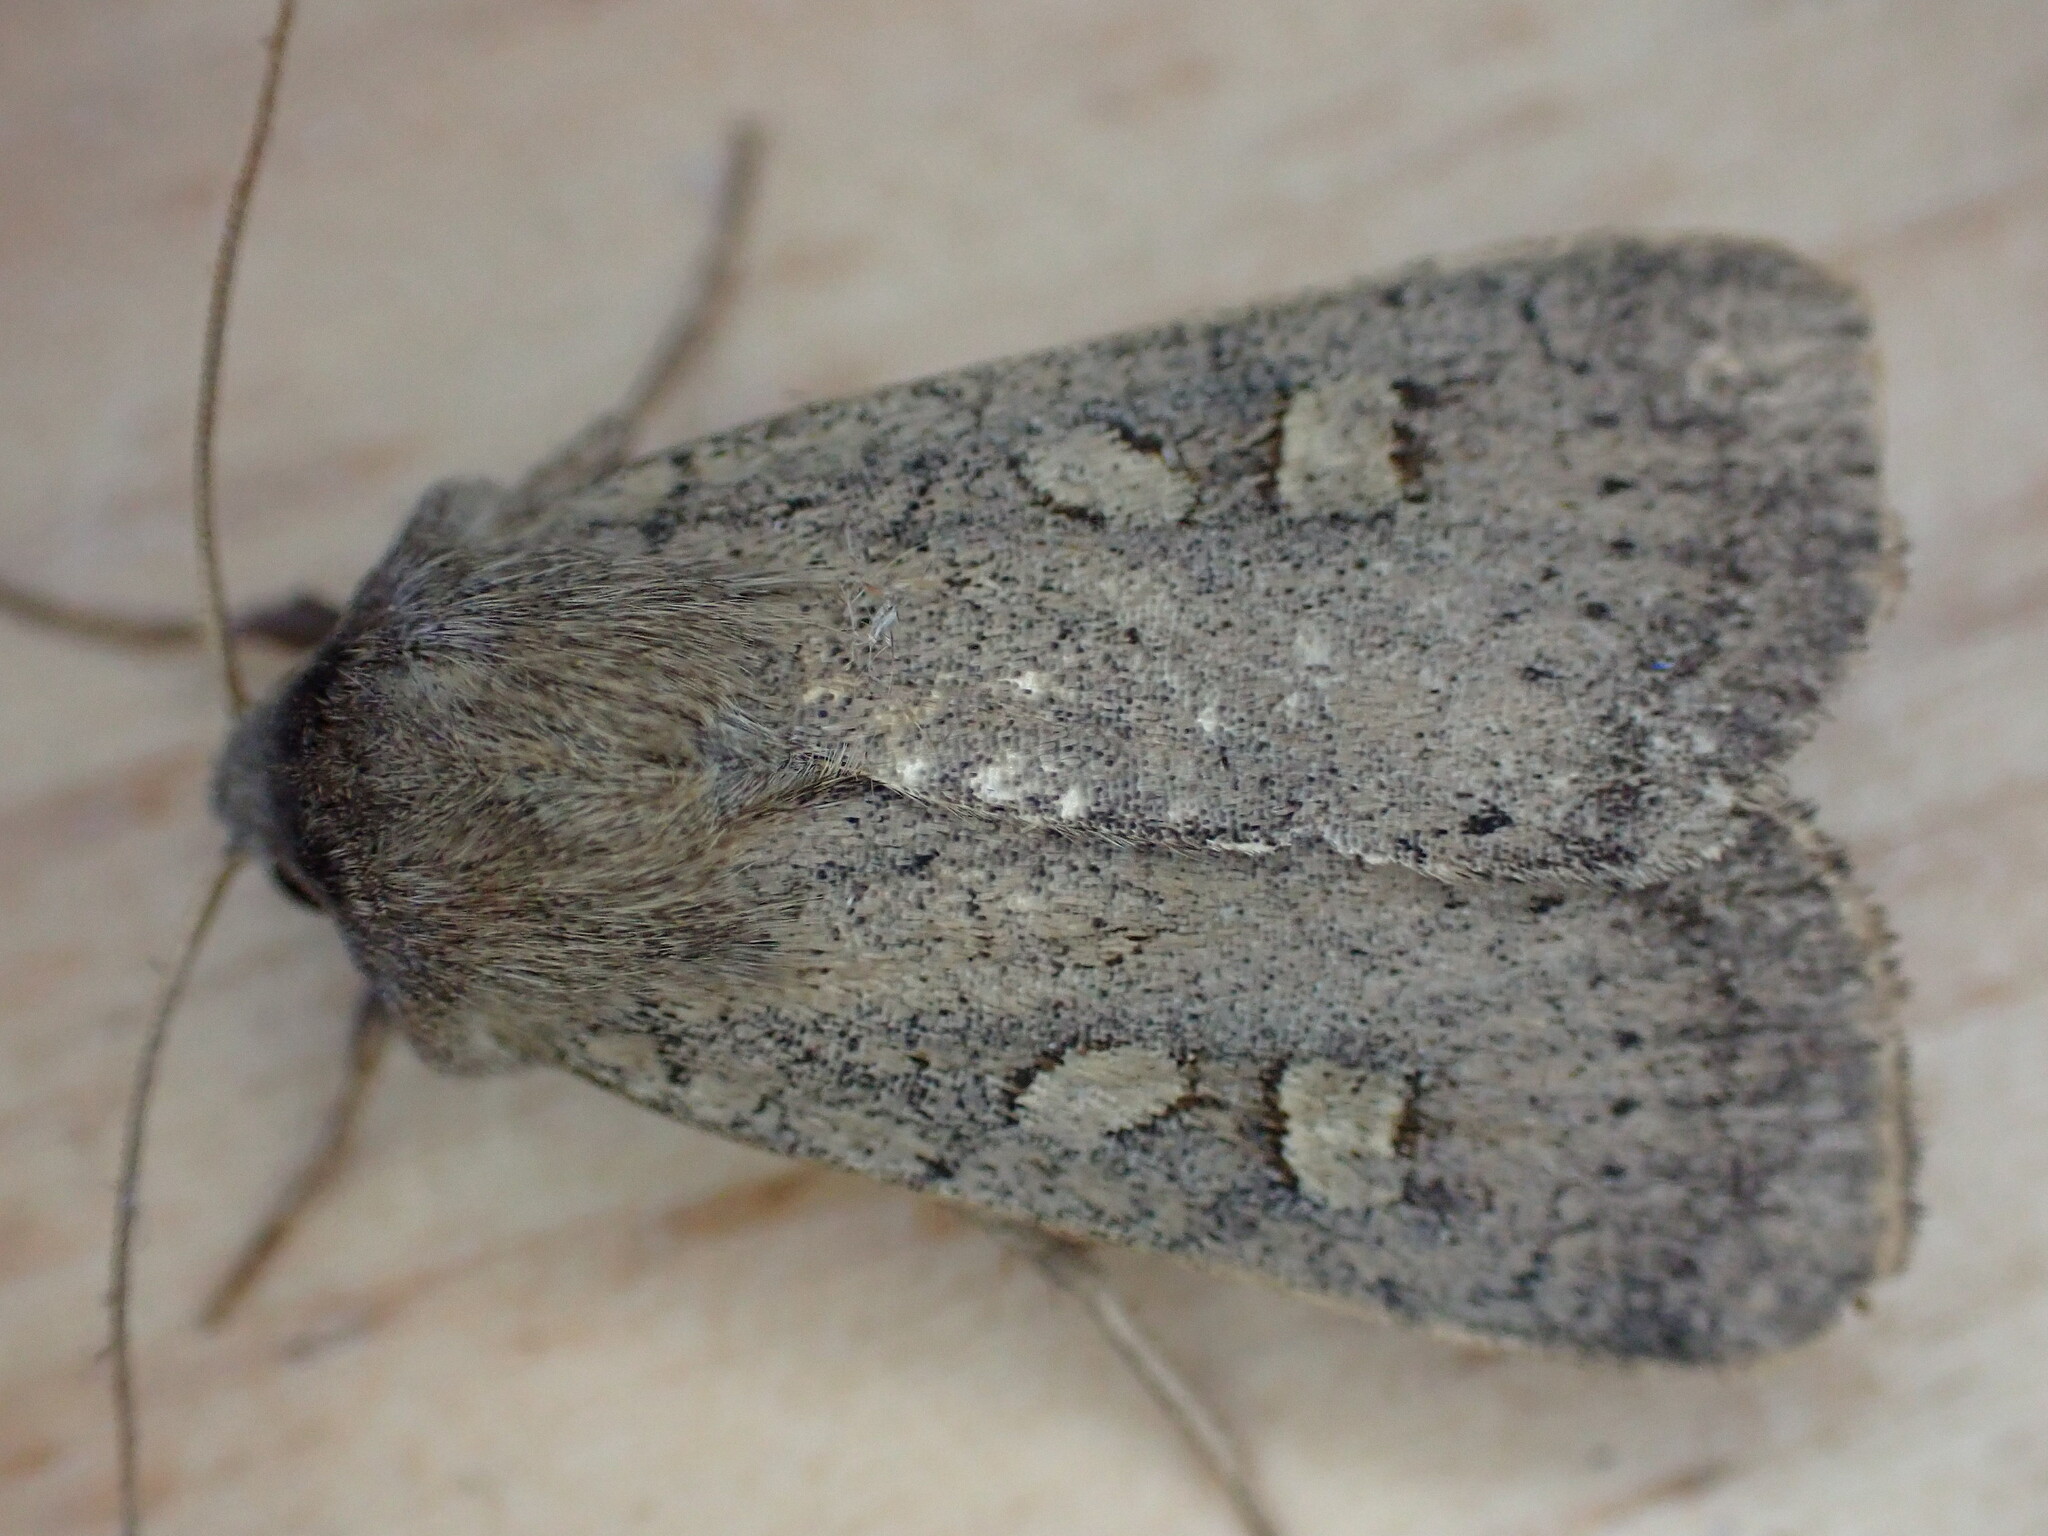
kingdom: Animalia
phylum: Arthropoda
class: Insecta
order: Lepidoptera
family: Noctuidae
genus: Xestia
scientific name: Xestia xanthographa
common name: Square-spot rustic
